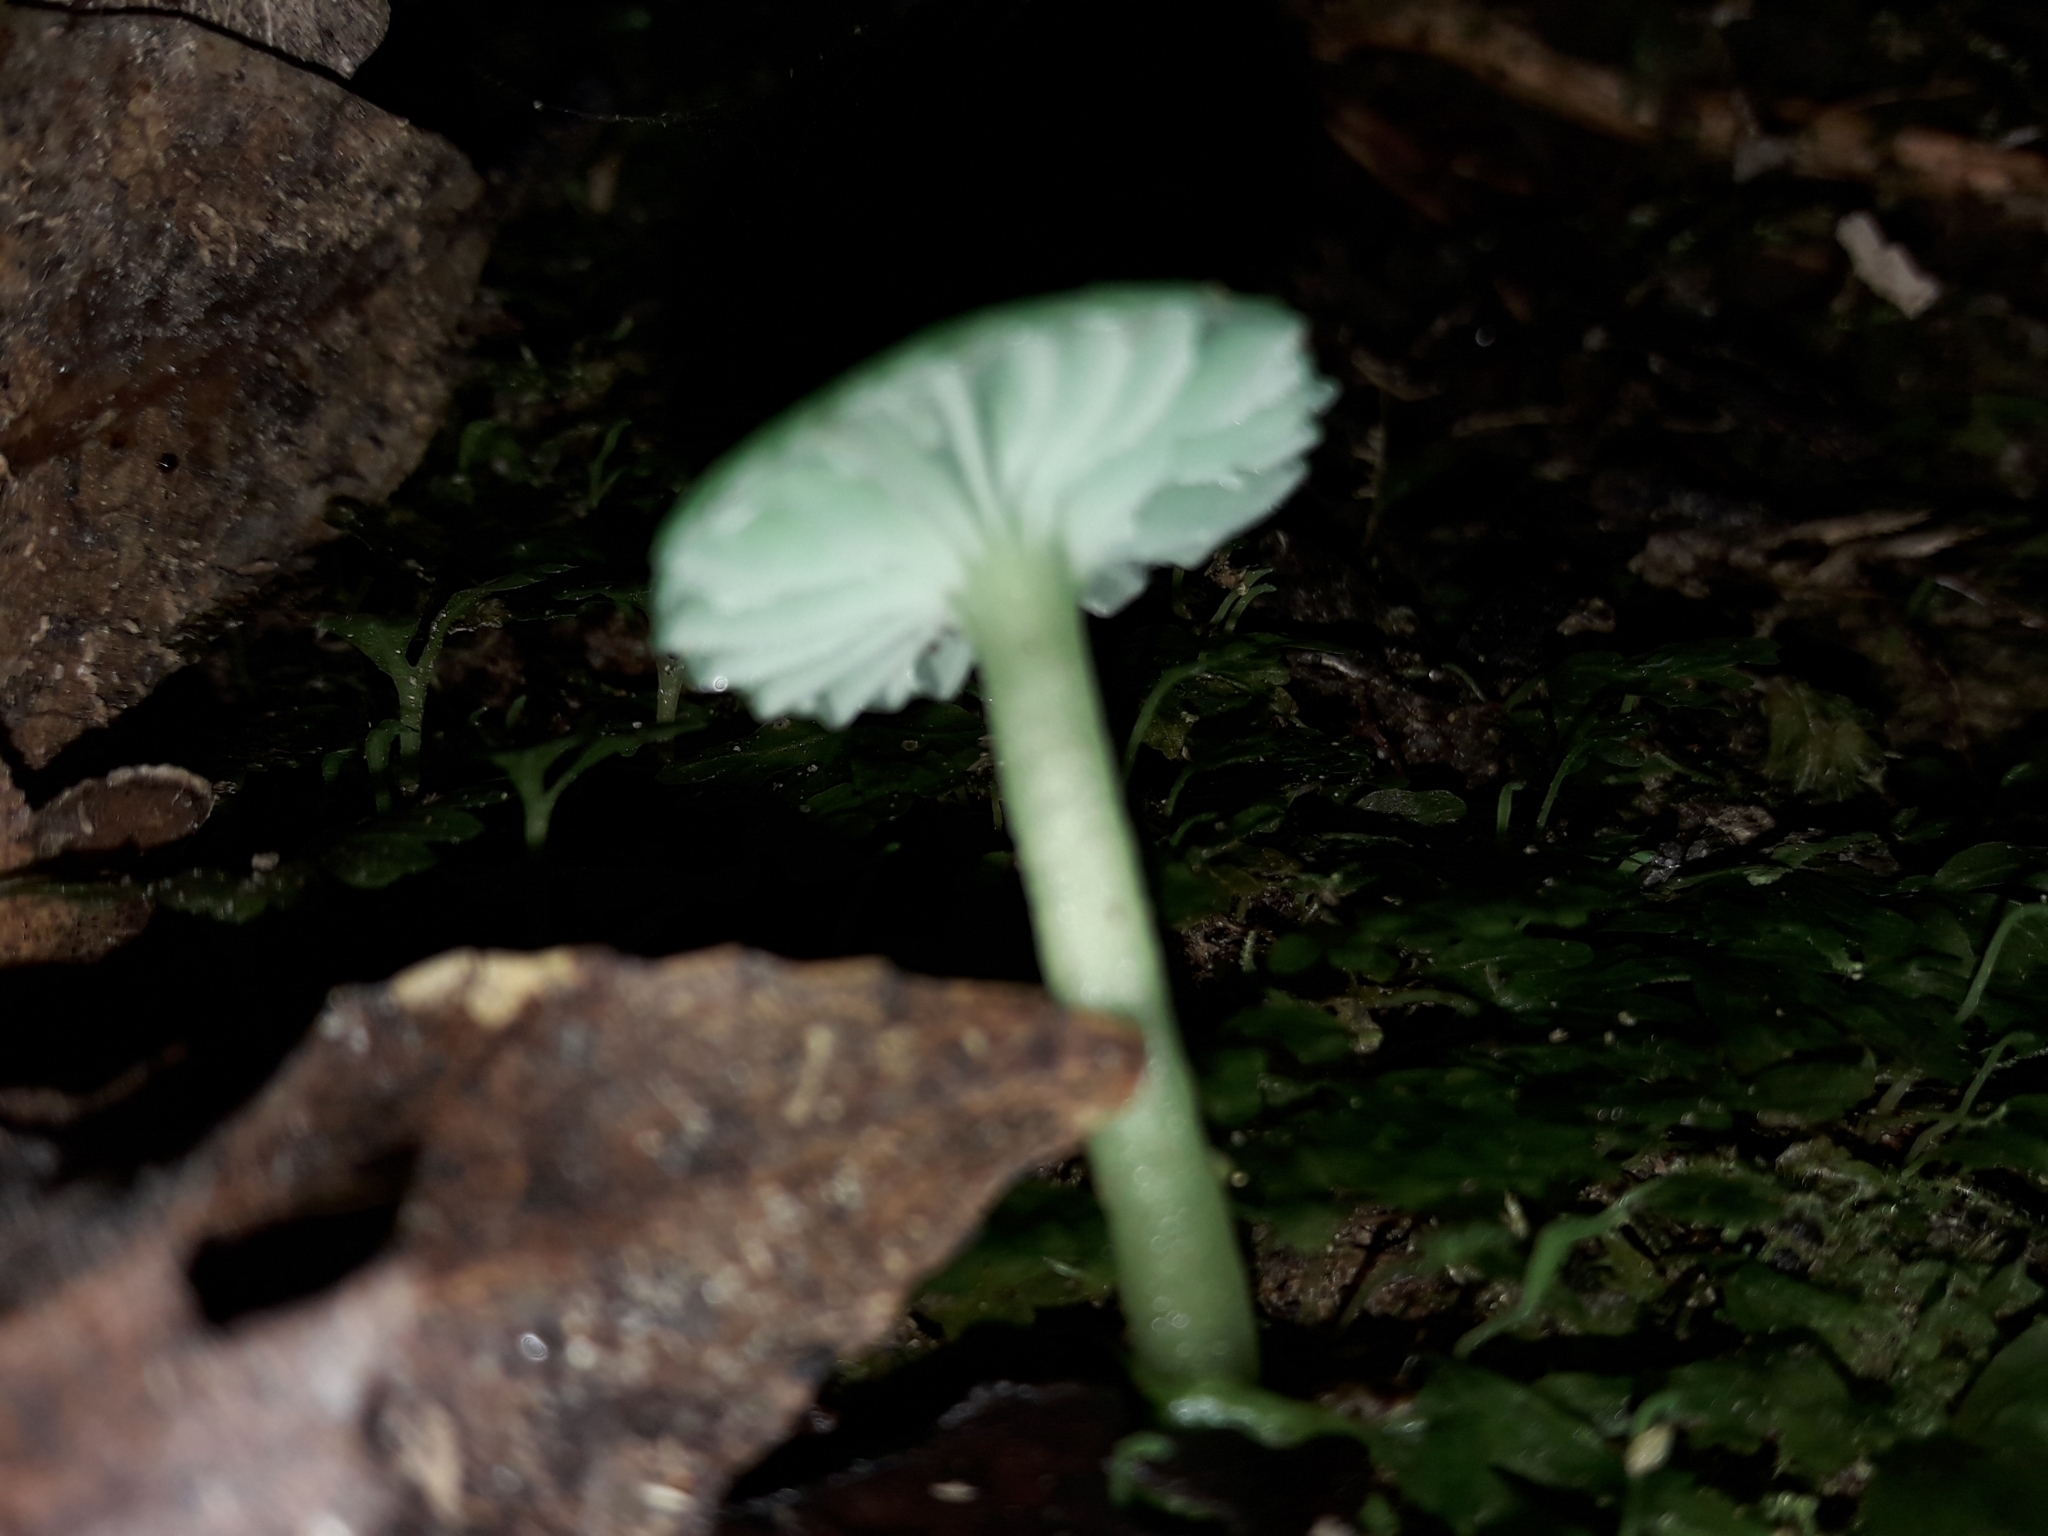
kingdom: Fungi
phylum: Basidiomycota
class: Agaricomycetes
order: Agaricales
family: Hygrophoraceae
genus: Gliophorus
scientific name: Gliophorus viridis
